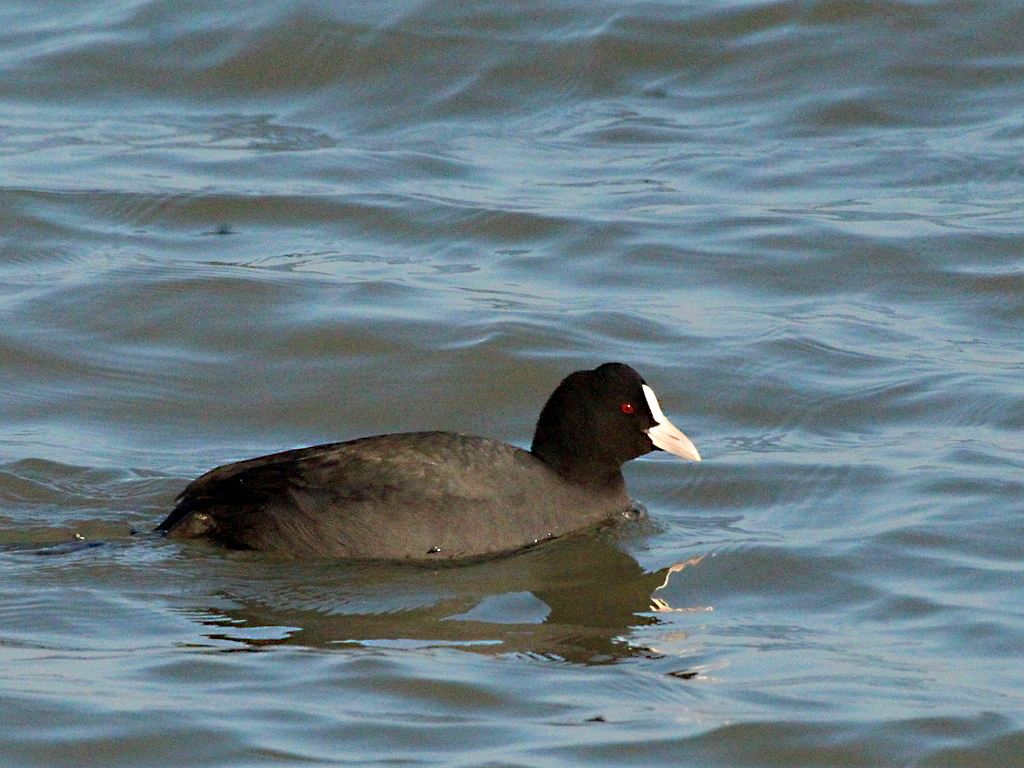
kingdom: Animalia
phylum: Chordata
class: Aves
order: Gruiformes
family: Rallidae
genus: Fulica
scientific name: Fulica atra
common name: Eurasian coot
